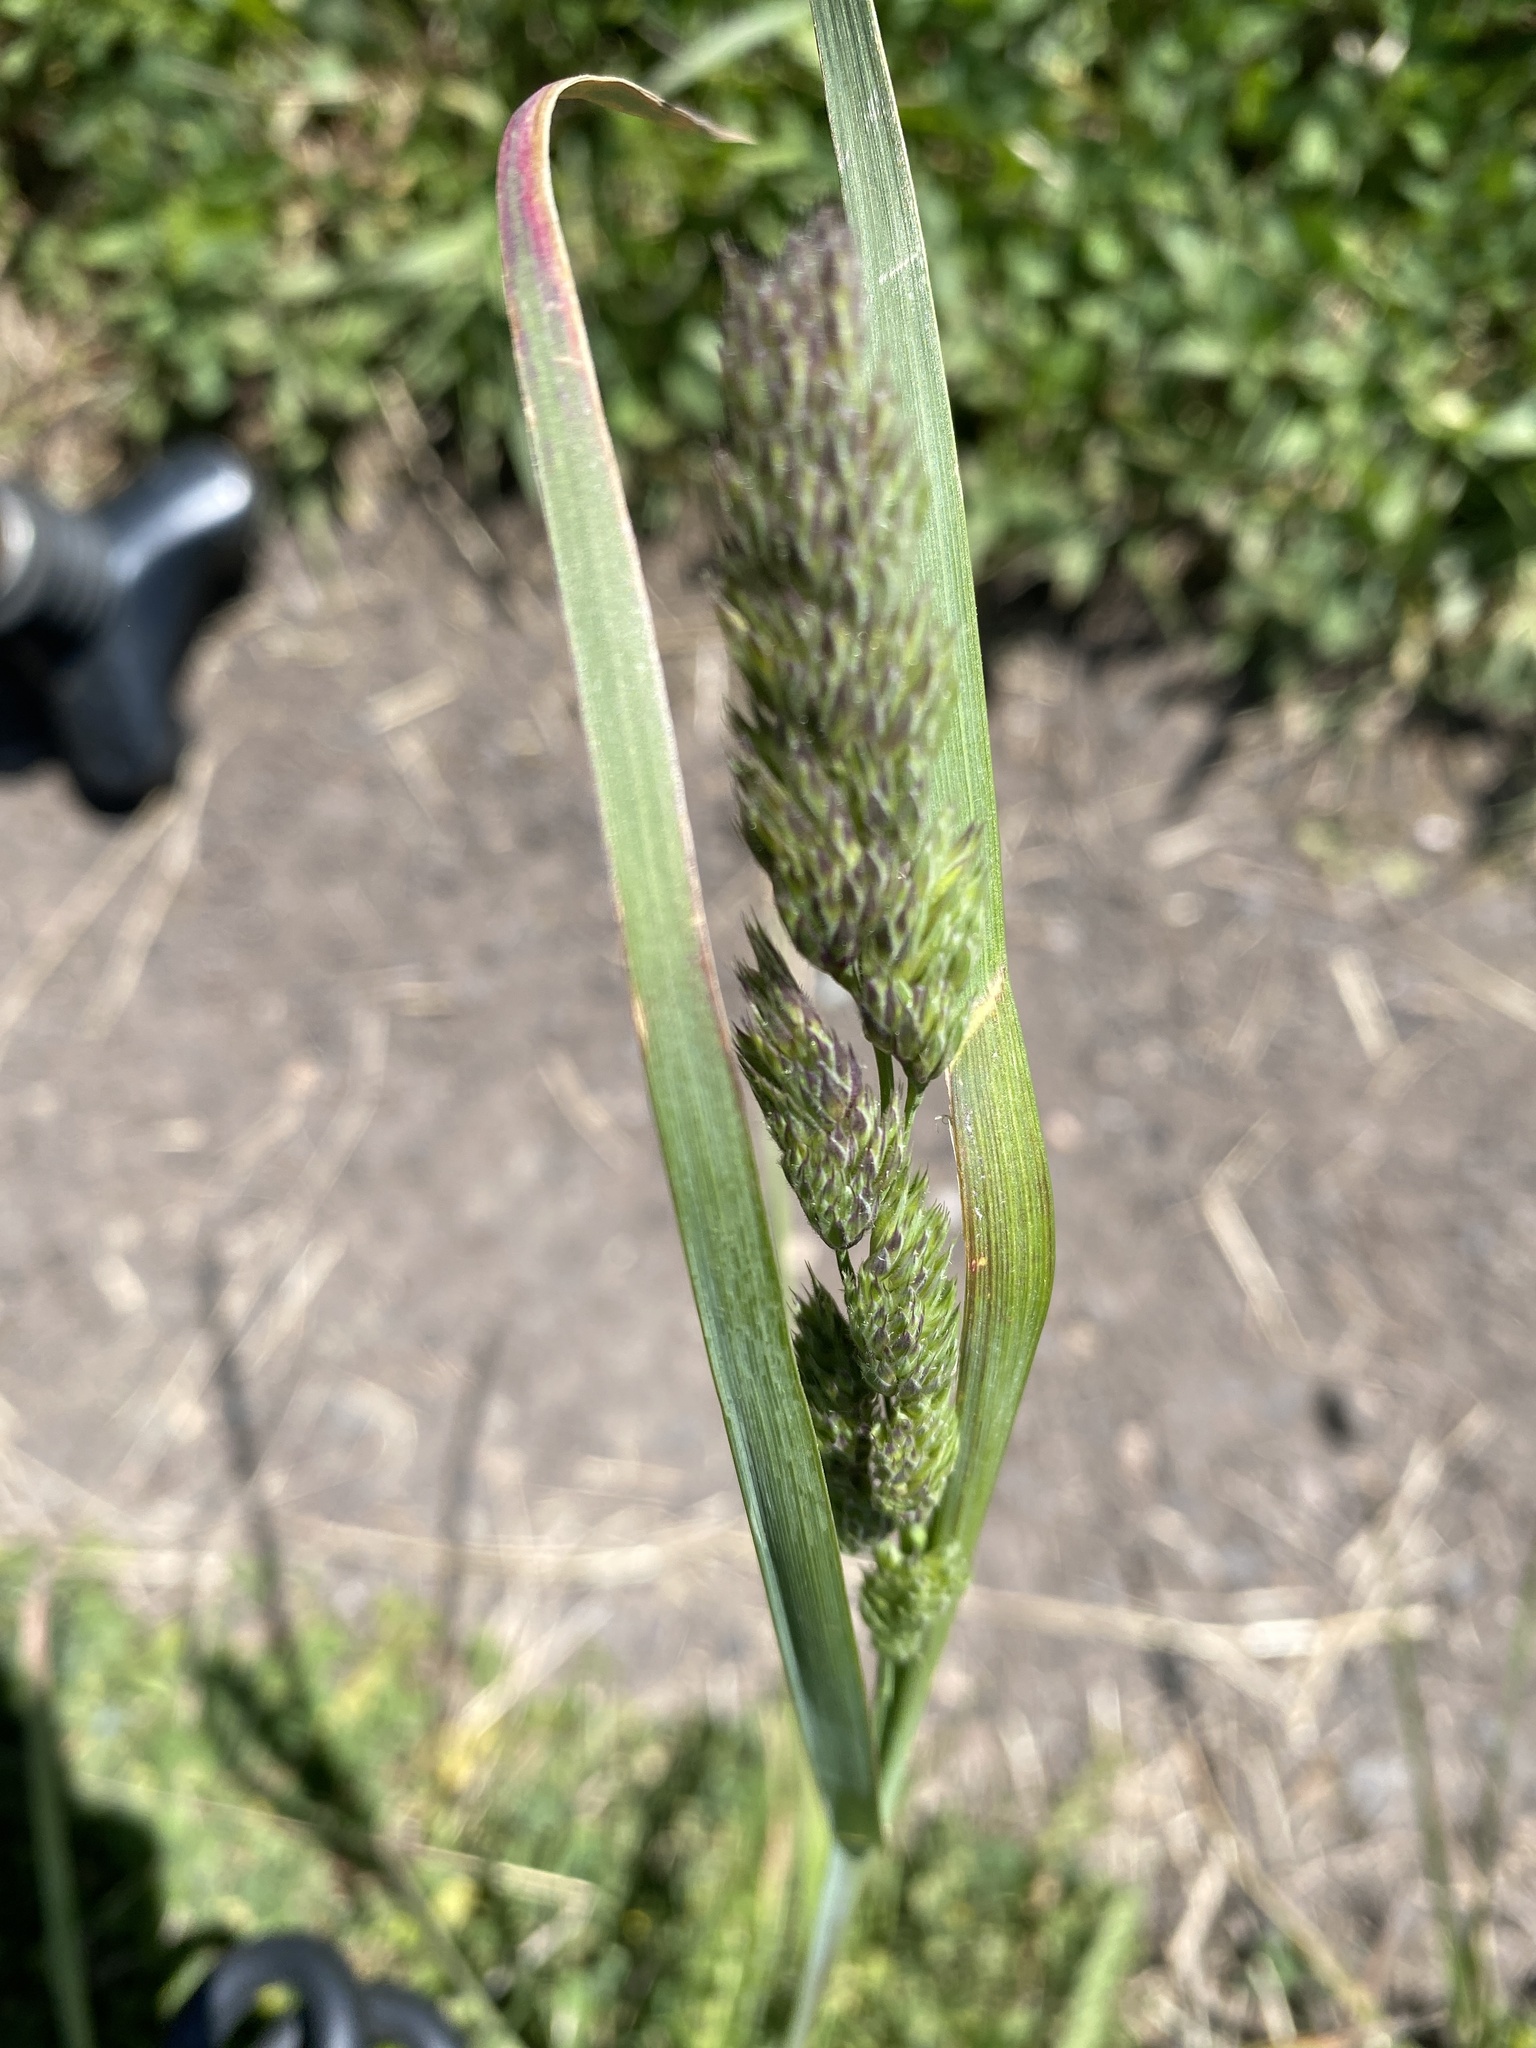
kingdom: Plantae
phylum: Tracheophyta
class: Liliopsida
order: Poales
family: Poaceae
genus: Dactylis
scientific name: Dactylis glomerata
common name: Orchardgrass
